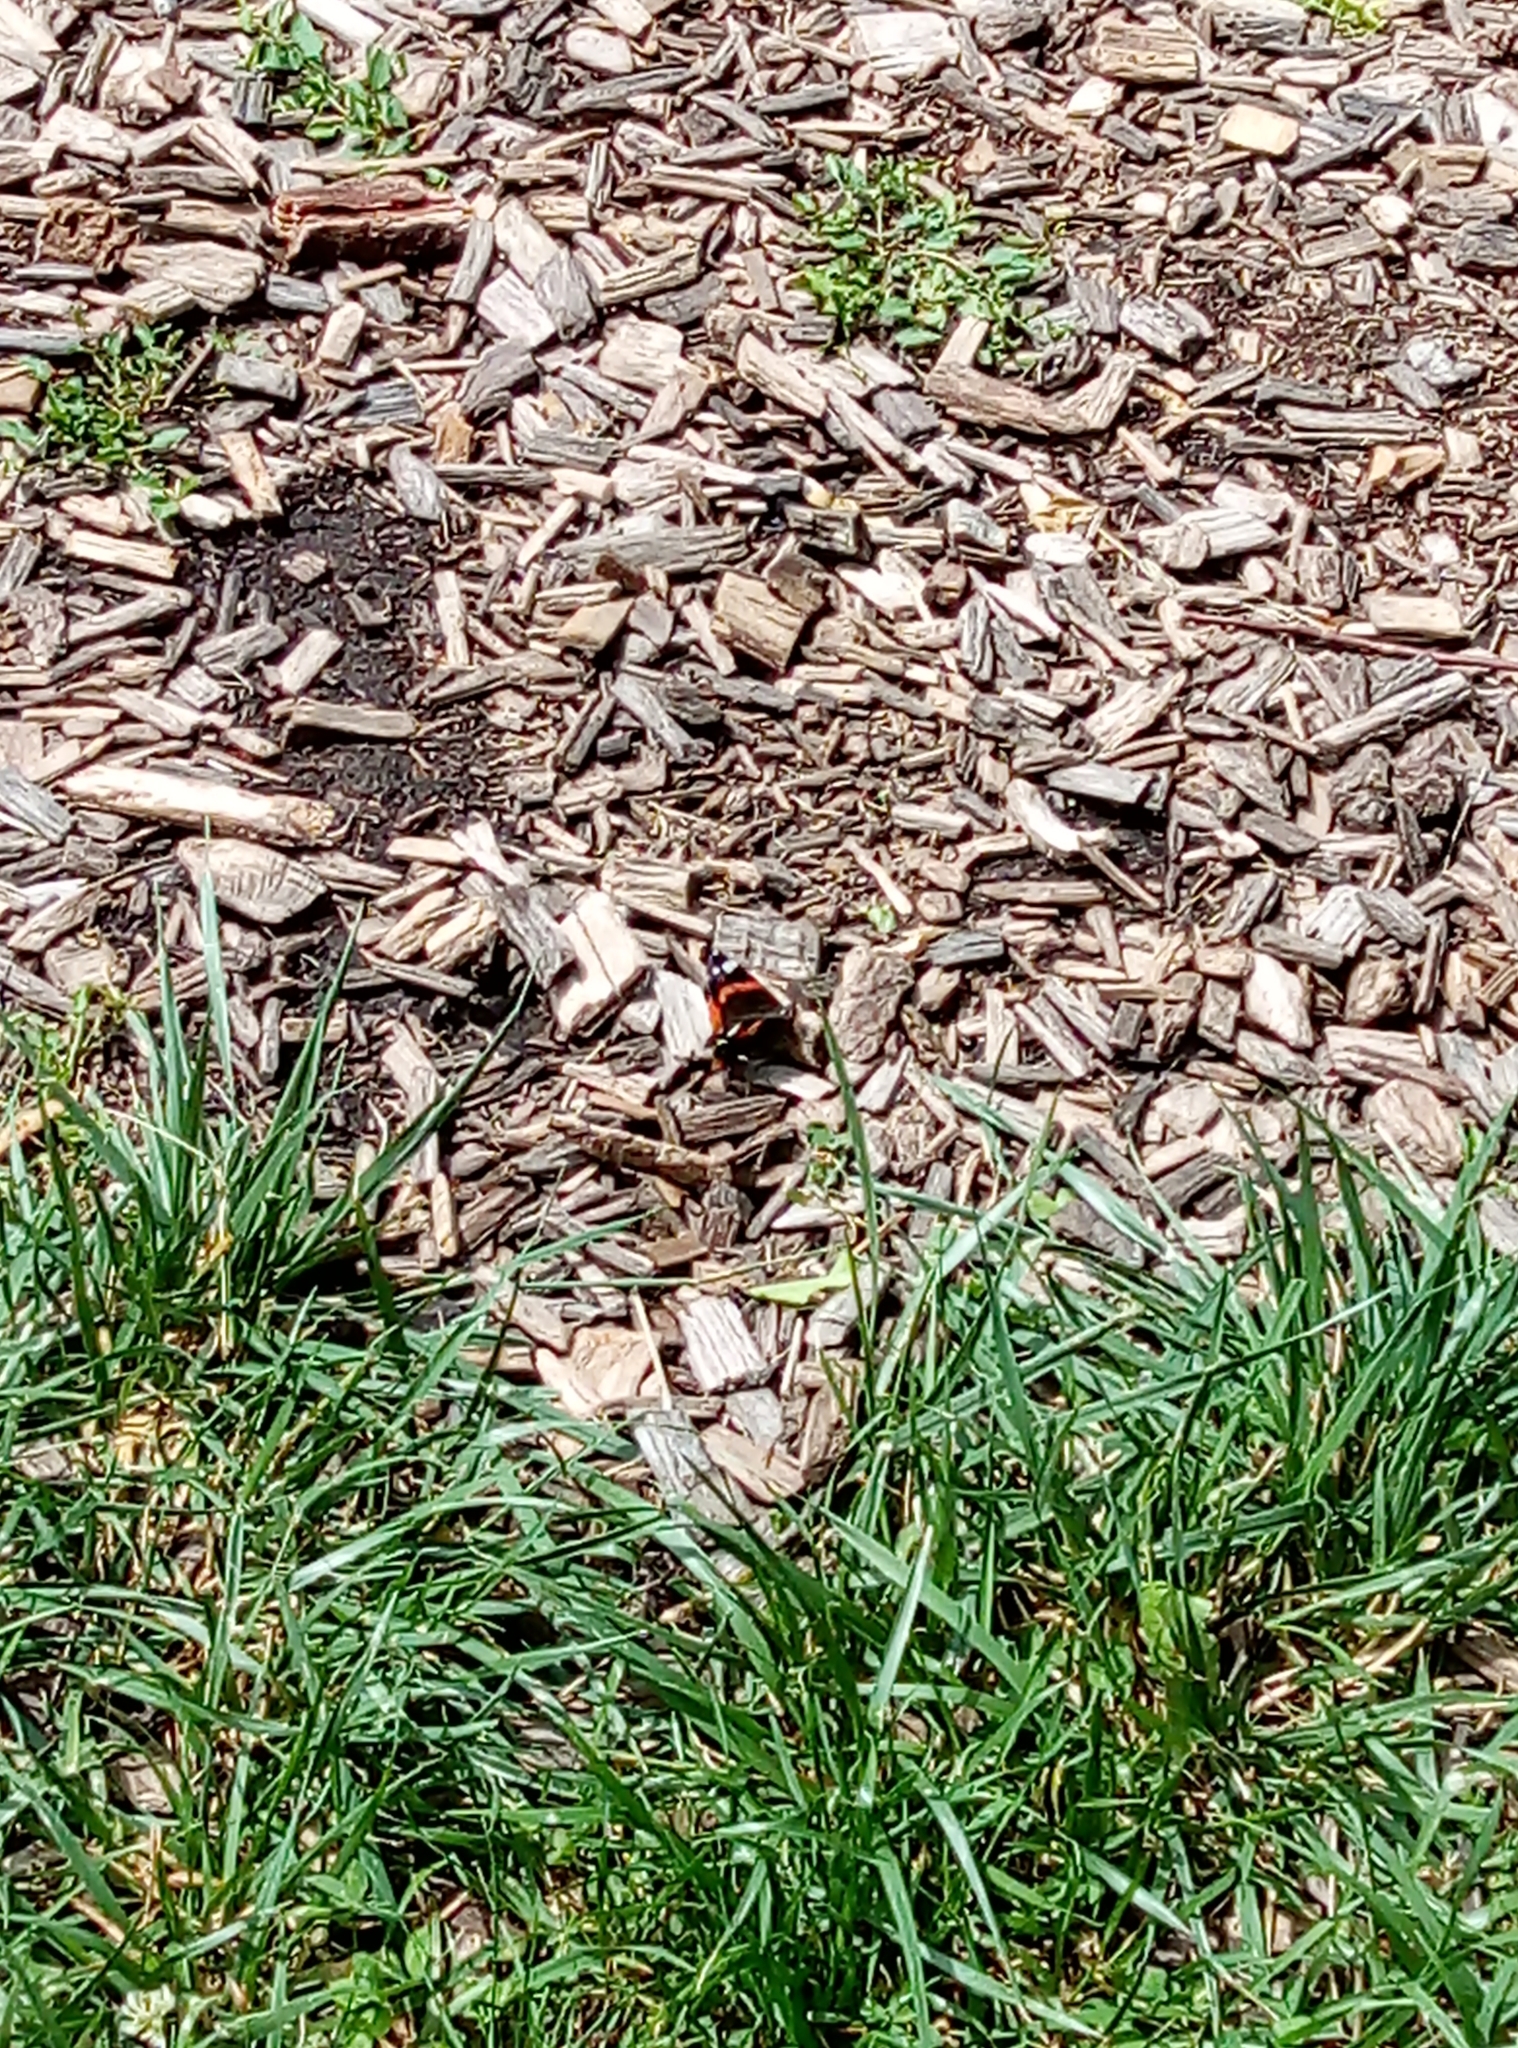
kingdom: Animalia
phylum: Arthropoda
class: Insecta
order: Lepidoptera
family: Nymphalidae
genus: Vanessa
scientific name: Vanessa atalanta
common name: Red admiral
